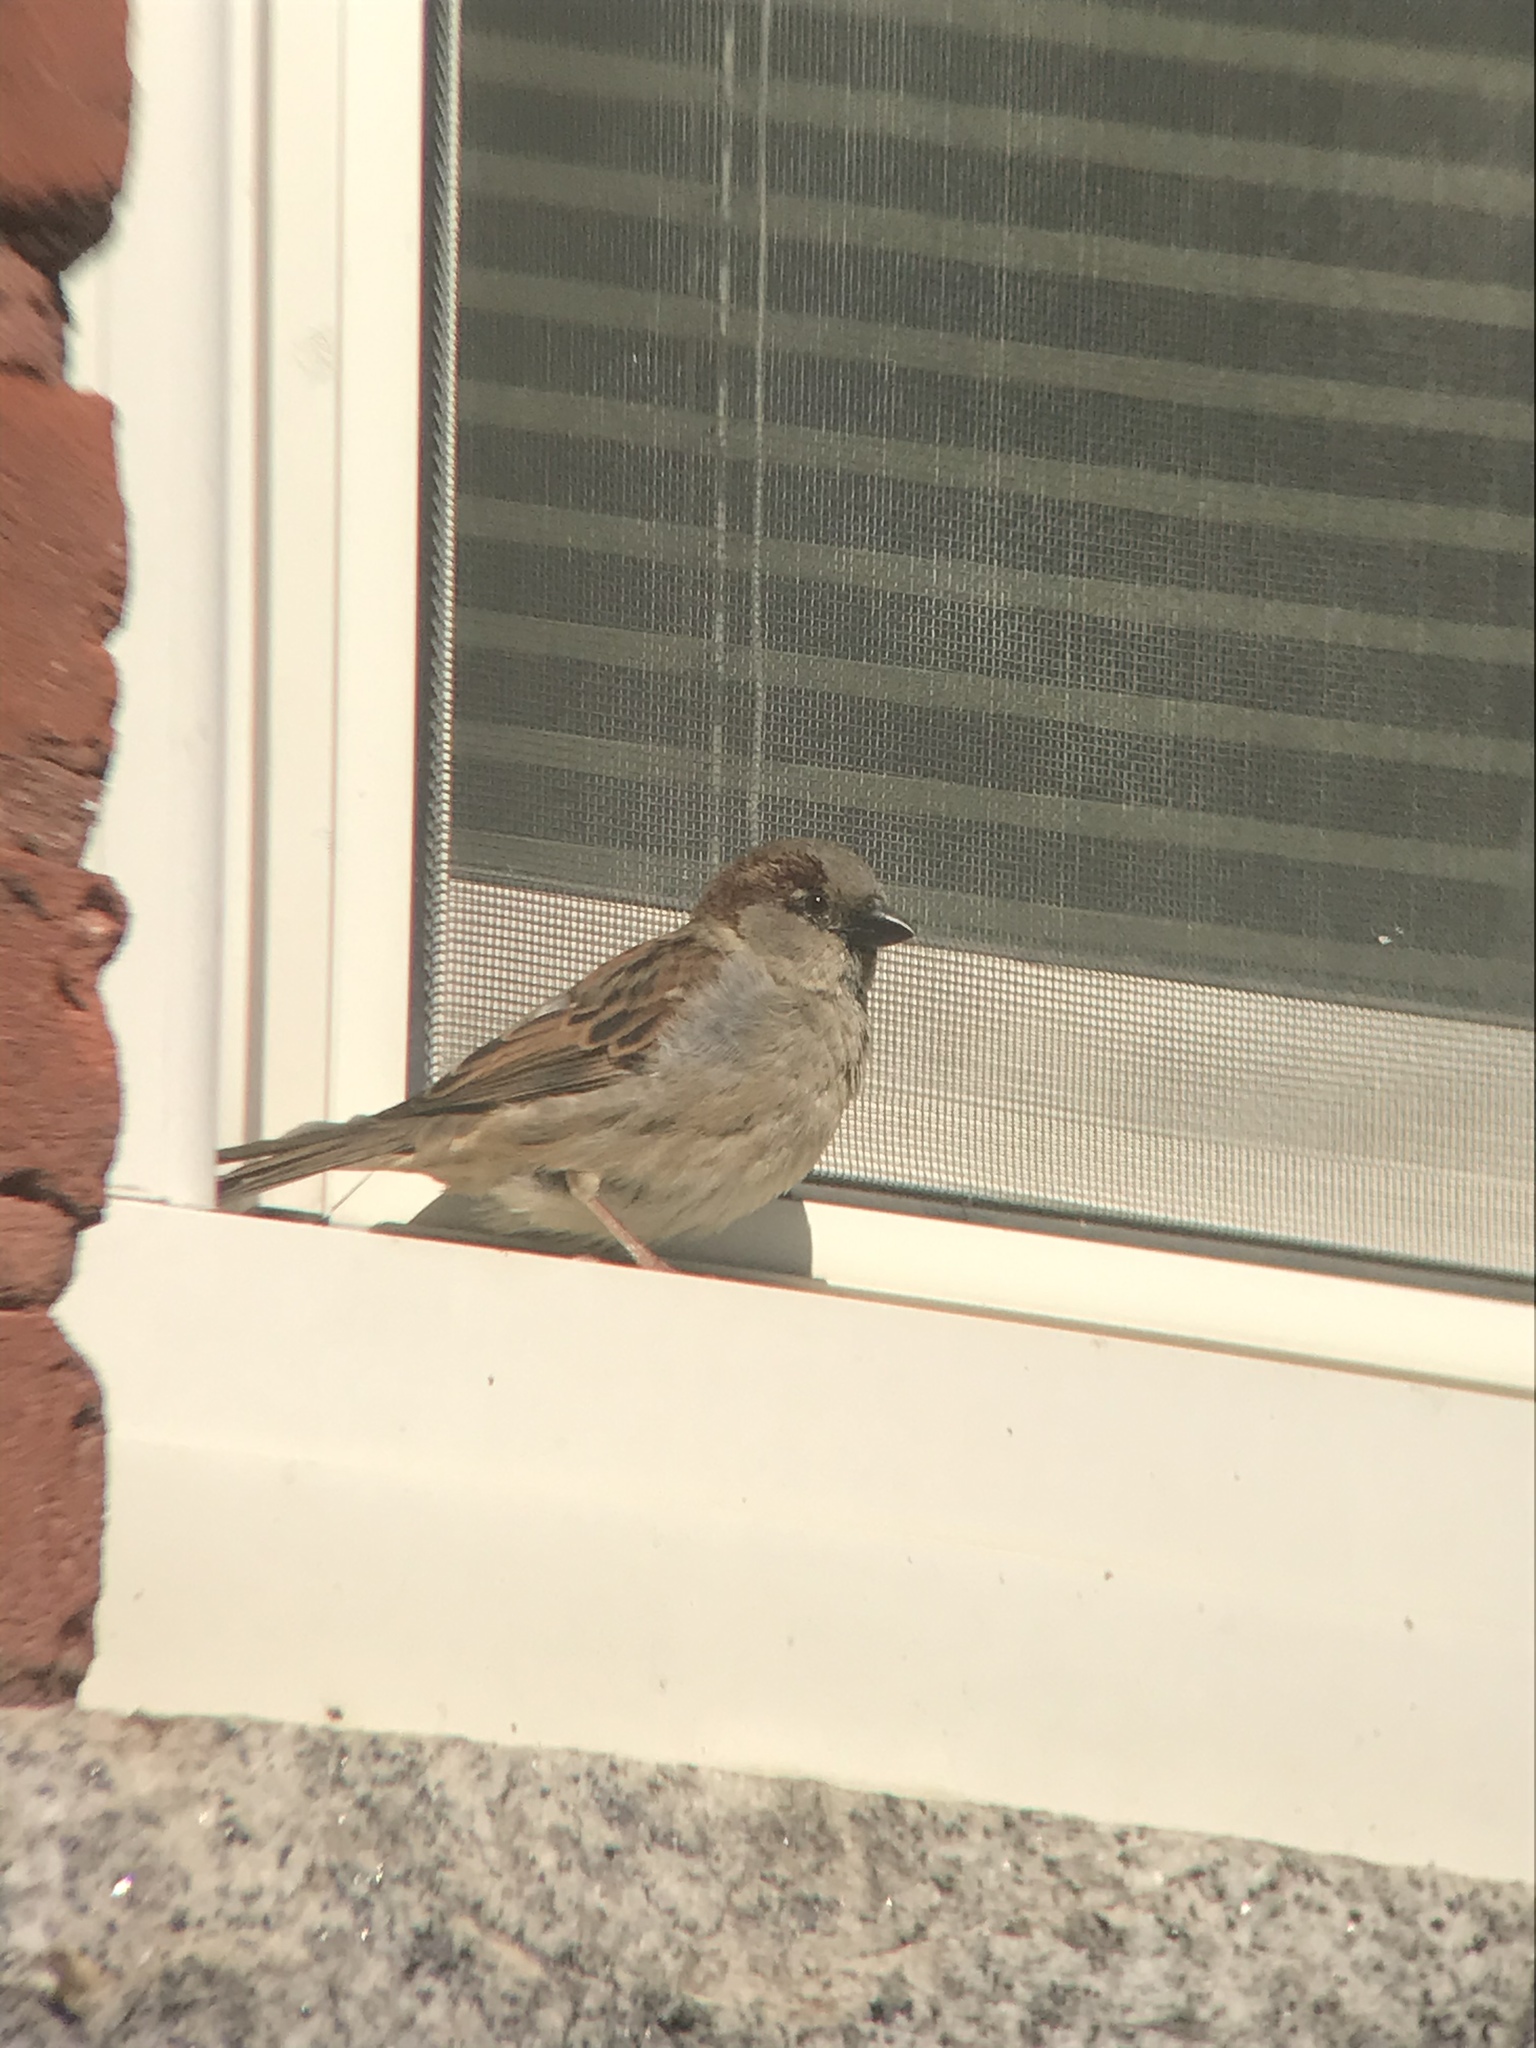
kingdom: Animalia
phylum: Chordata
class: Aves
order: Passeriformes
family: Passeridae
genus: Passer
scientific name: Passer domesticus
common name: House sparrow
